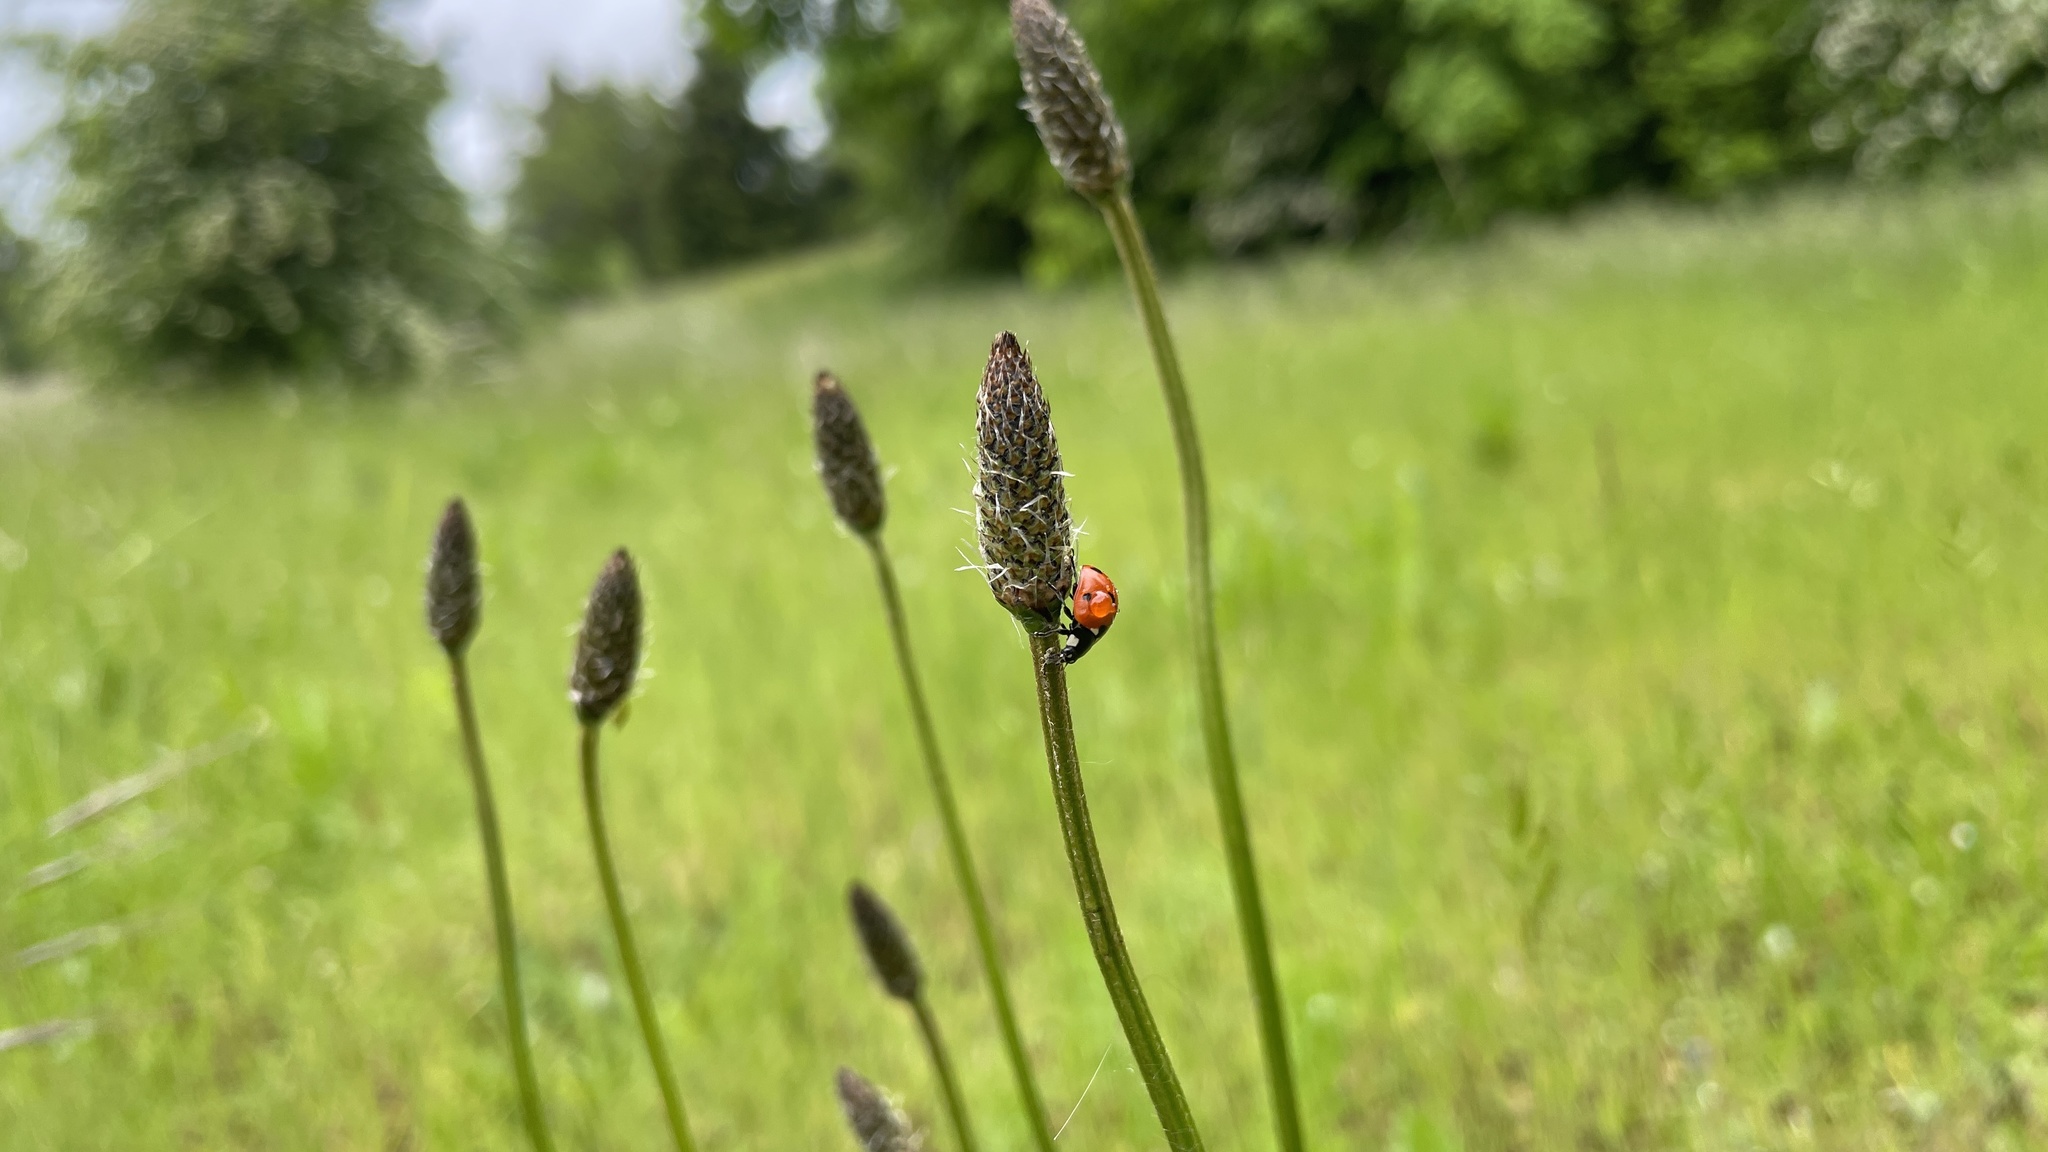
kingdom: Animalia
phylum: Arthropoda
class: Insecta
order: Coleoptera
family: Coccinellidae
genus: Coccinella
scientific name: Coccinella septempunctata
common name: Sevenspotted lady beetle
